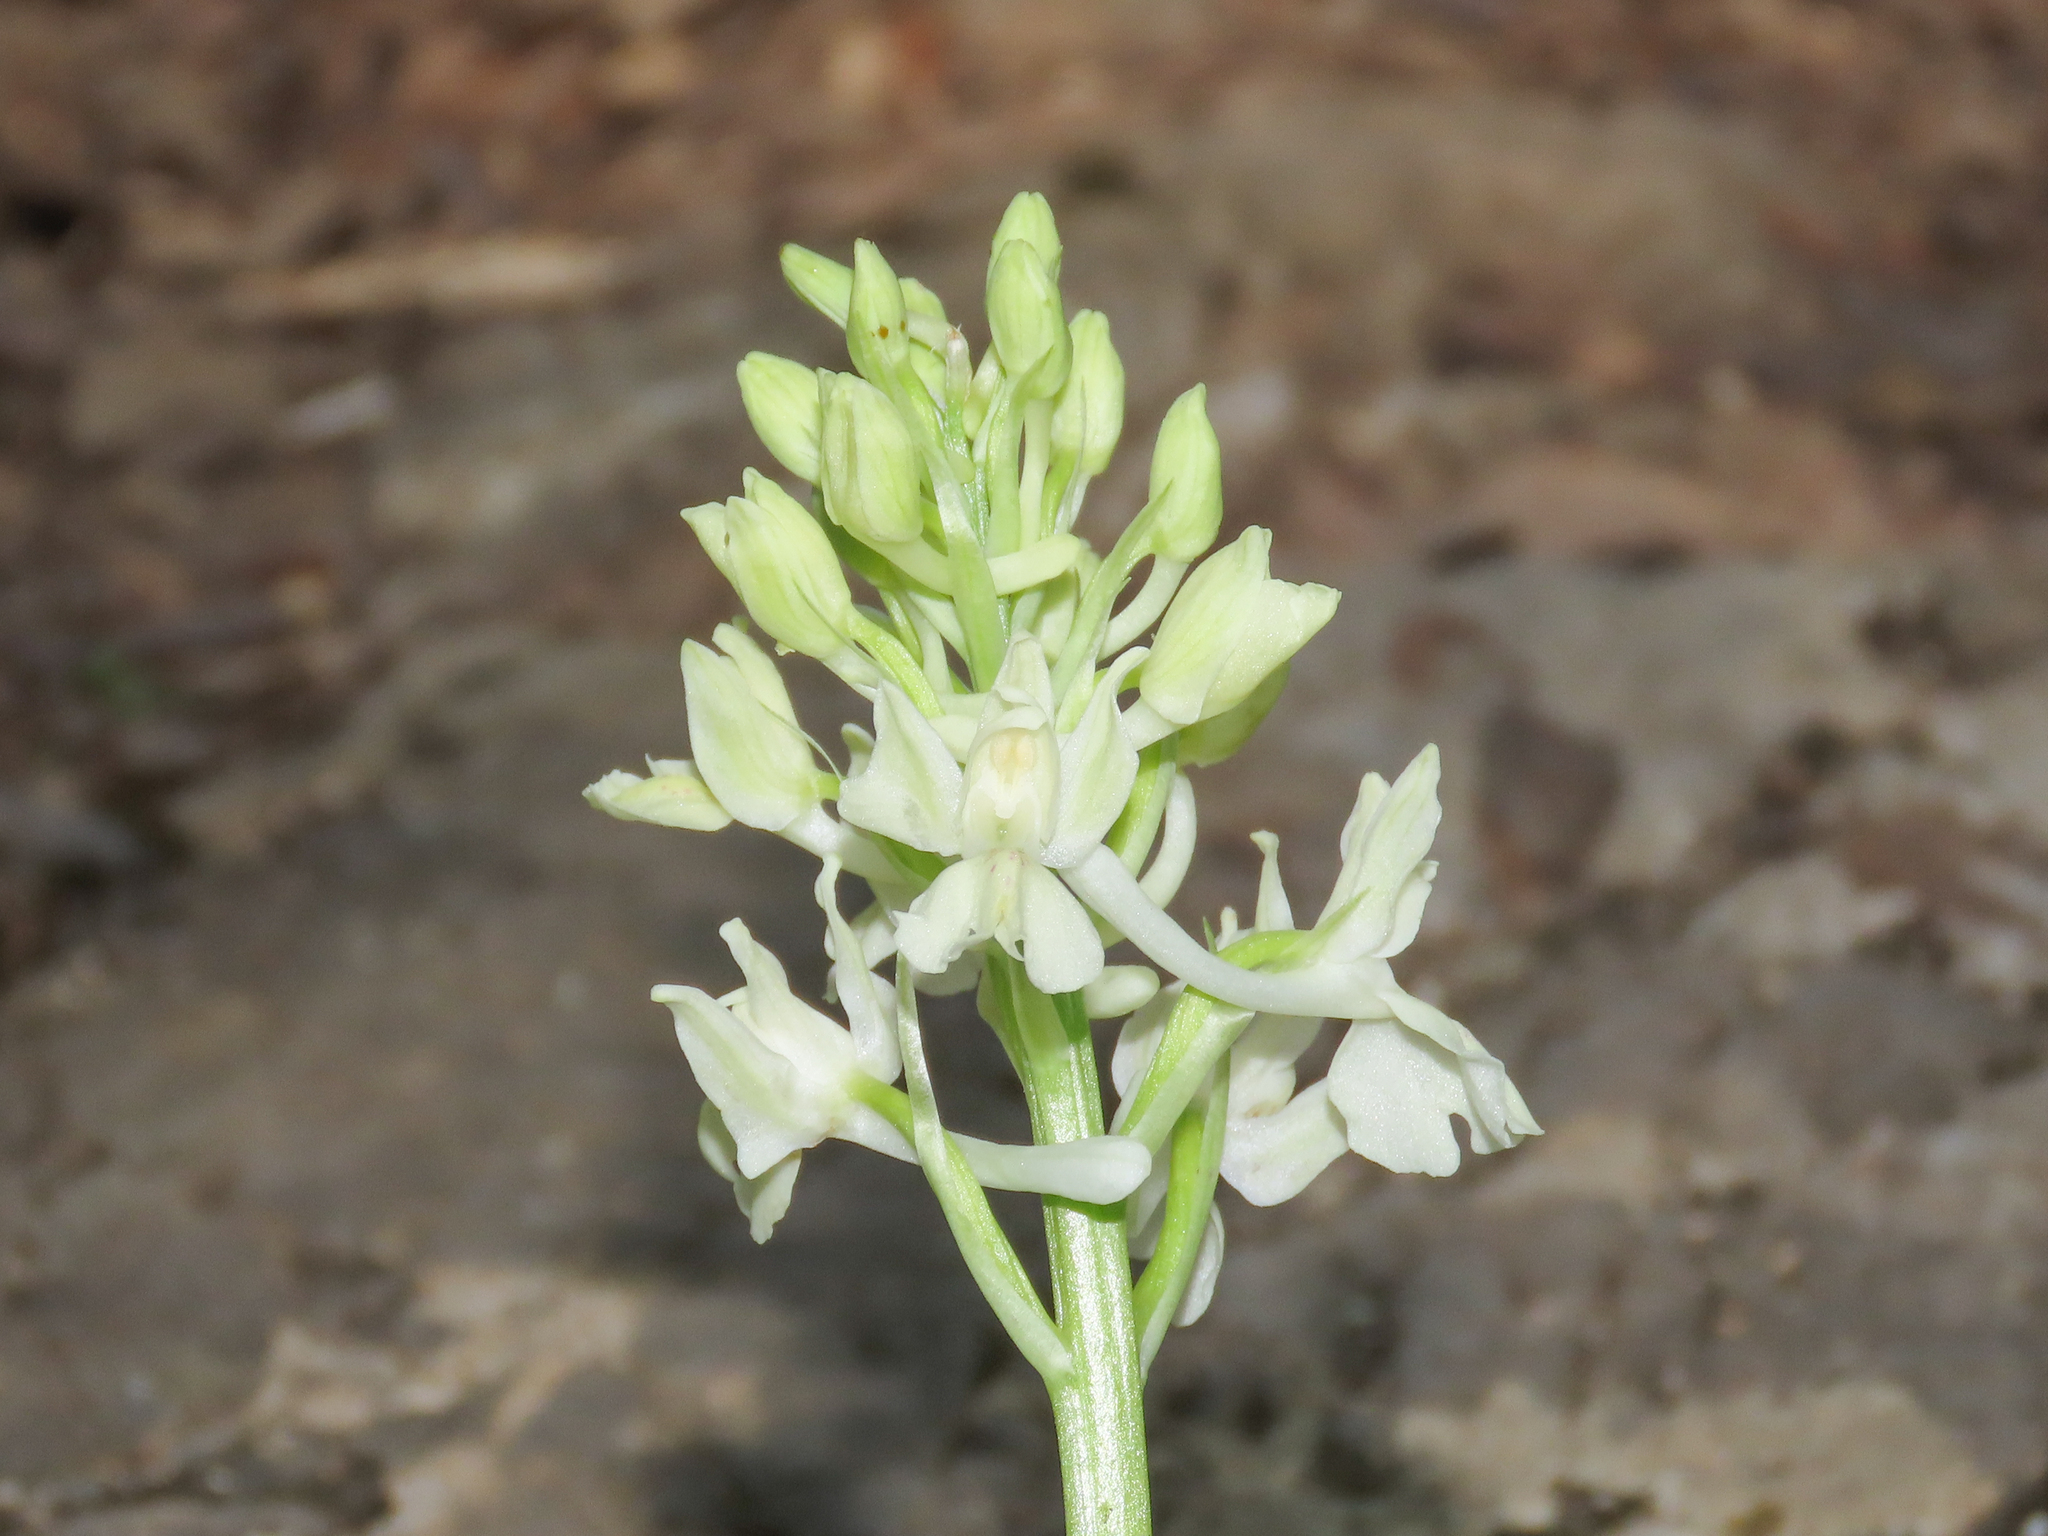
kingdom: Plantae
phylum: Tracheophyta
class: Liliopsida
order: Asparagales
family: Orchidaceae
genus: Orchis
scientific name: Orchis provincialis
